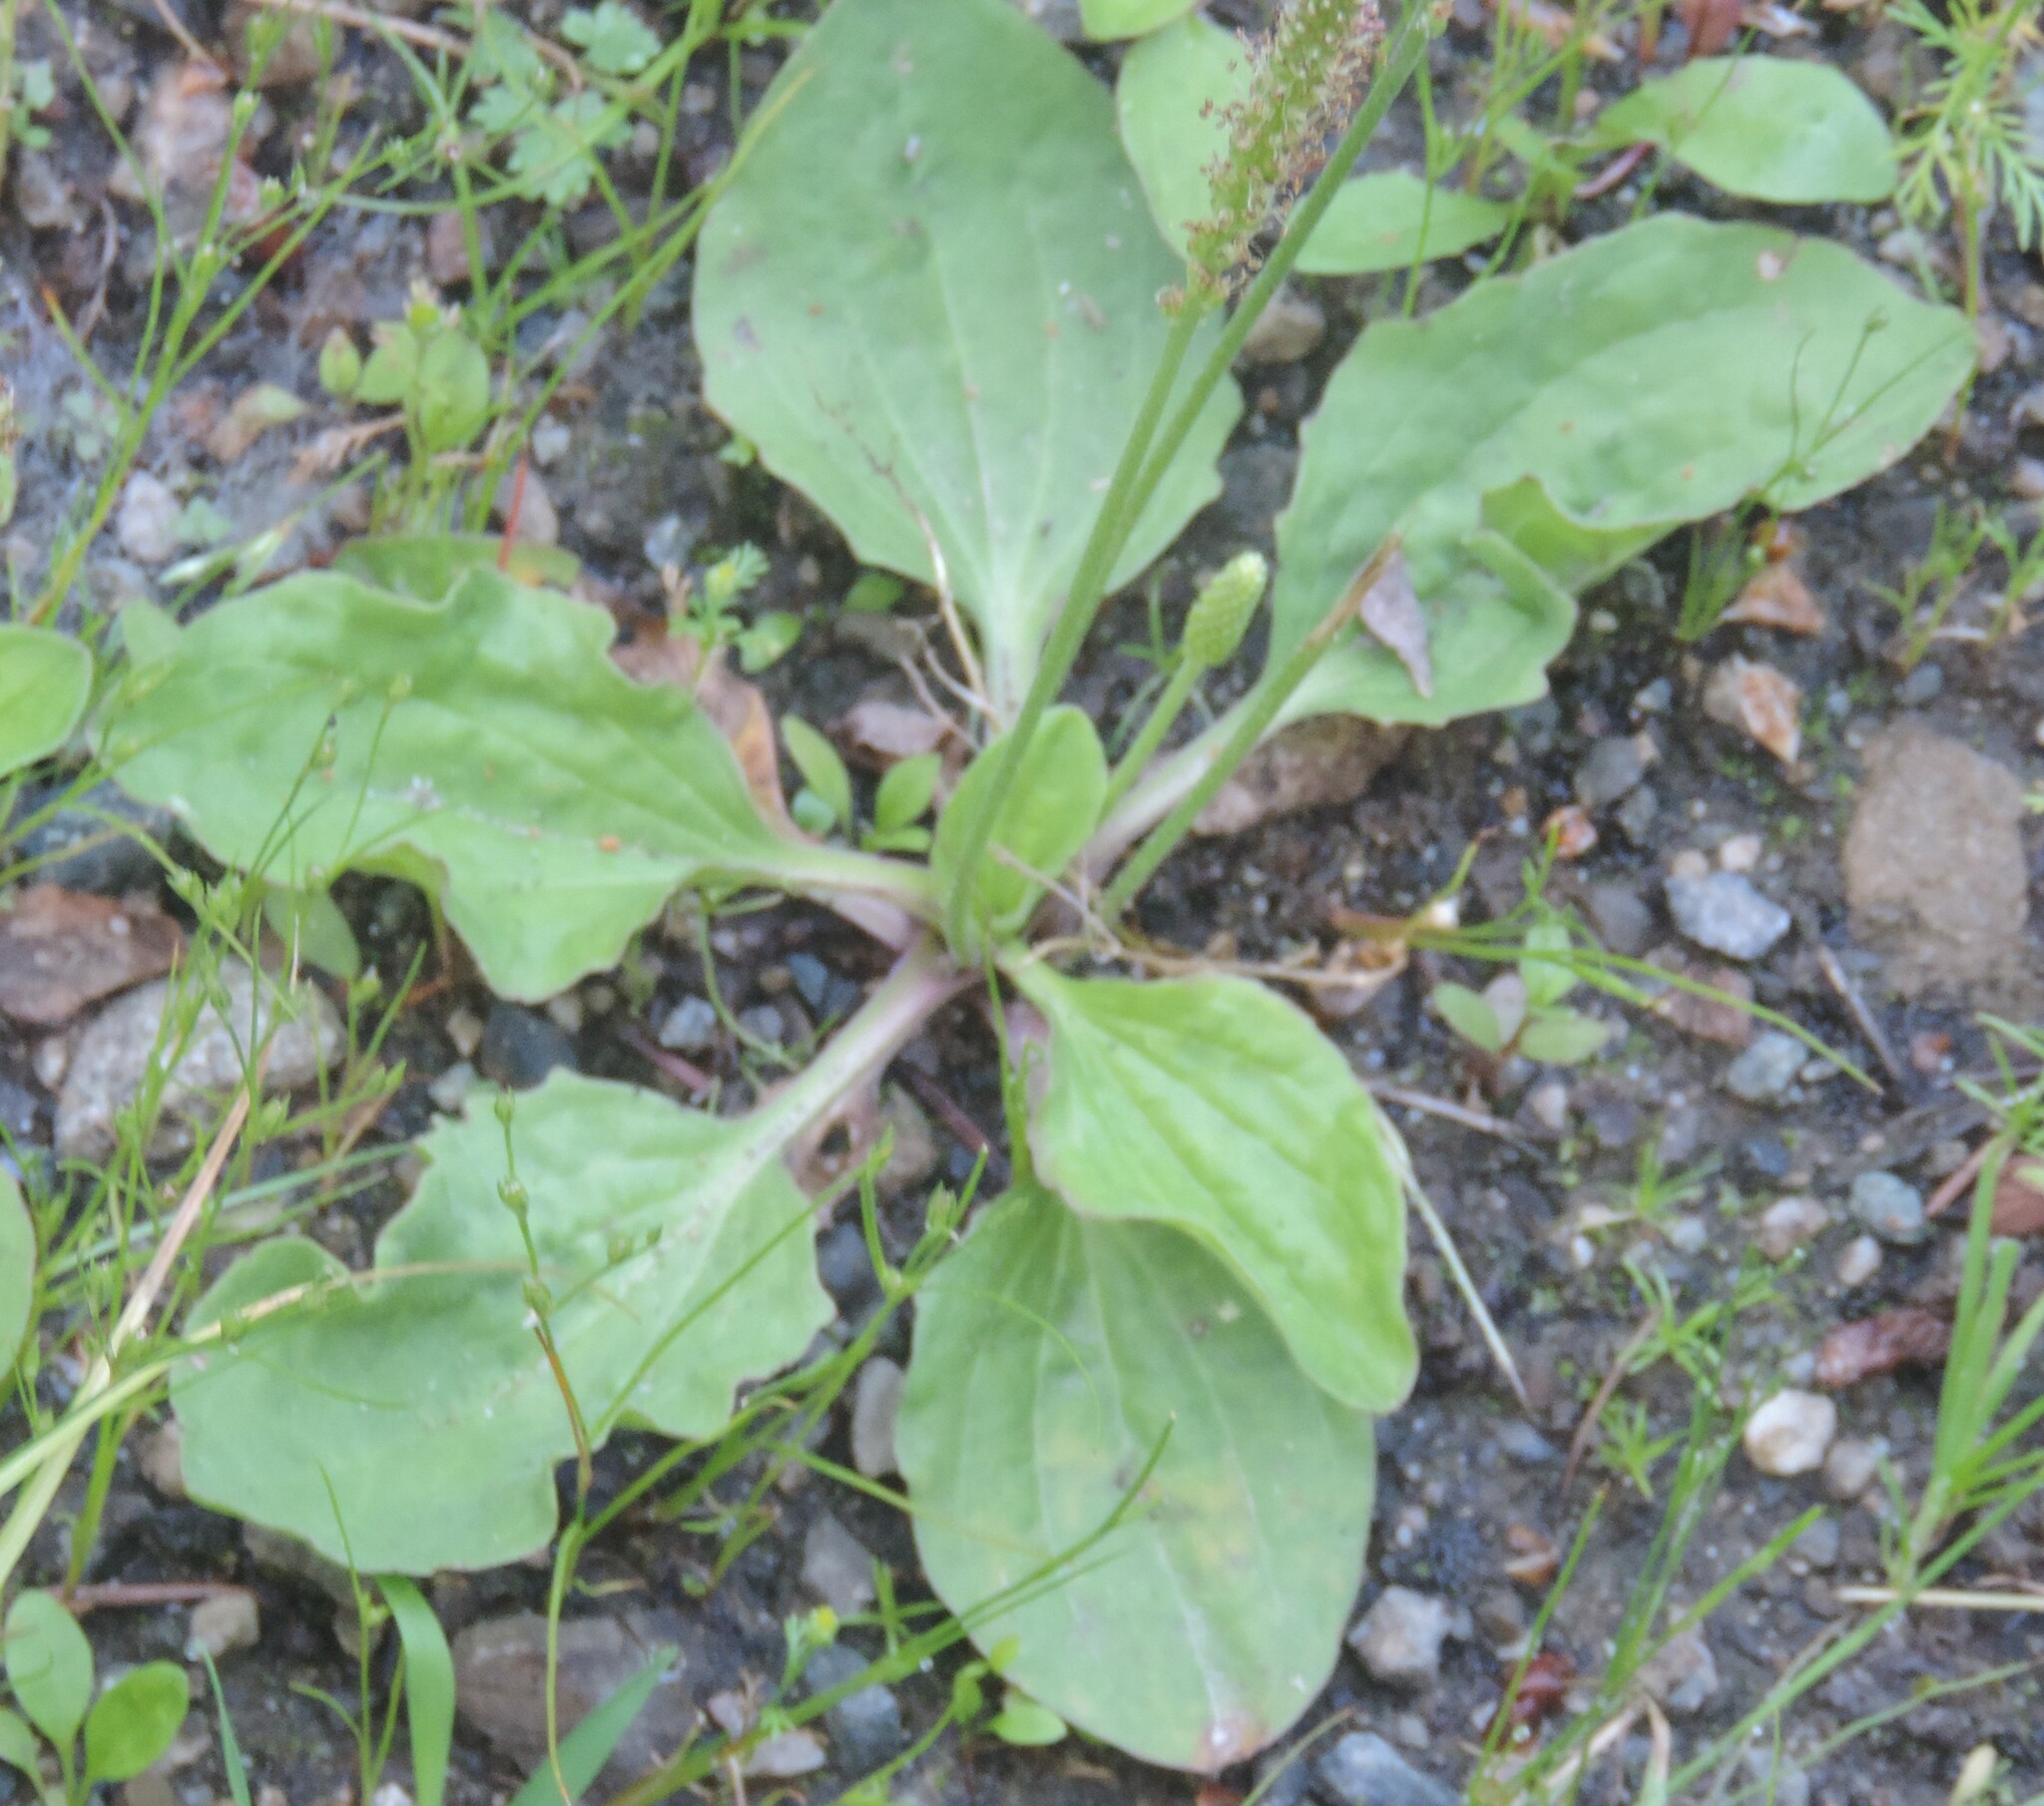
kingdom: Plantae
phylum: Tracheophyta
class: Magnoliopsida
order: Lamiales
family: Plantaginaceae
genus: Plantago
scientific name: Plantago major
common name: Common plantain
